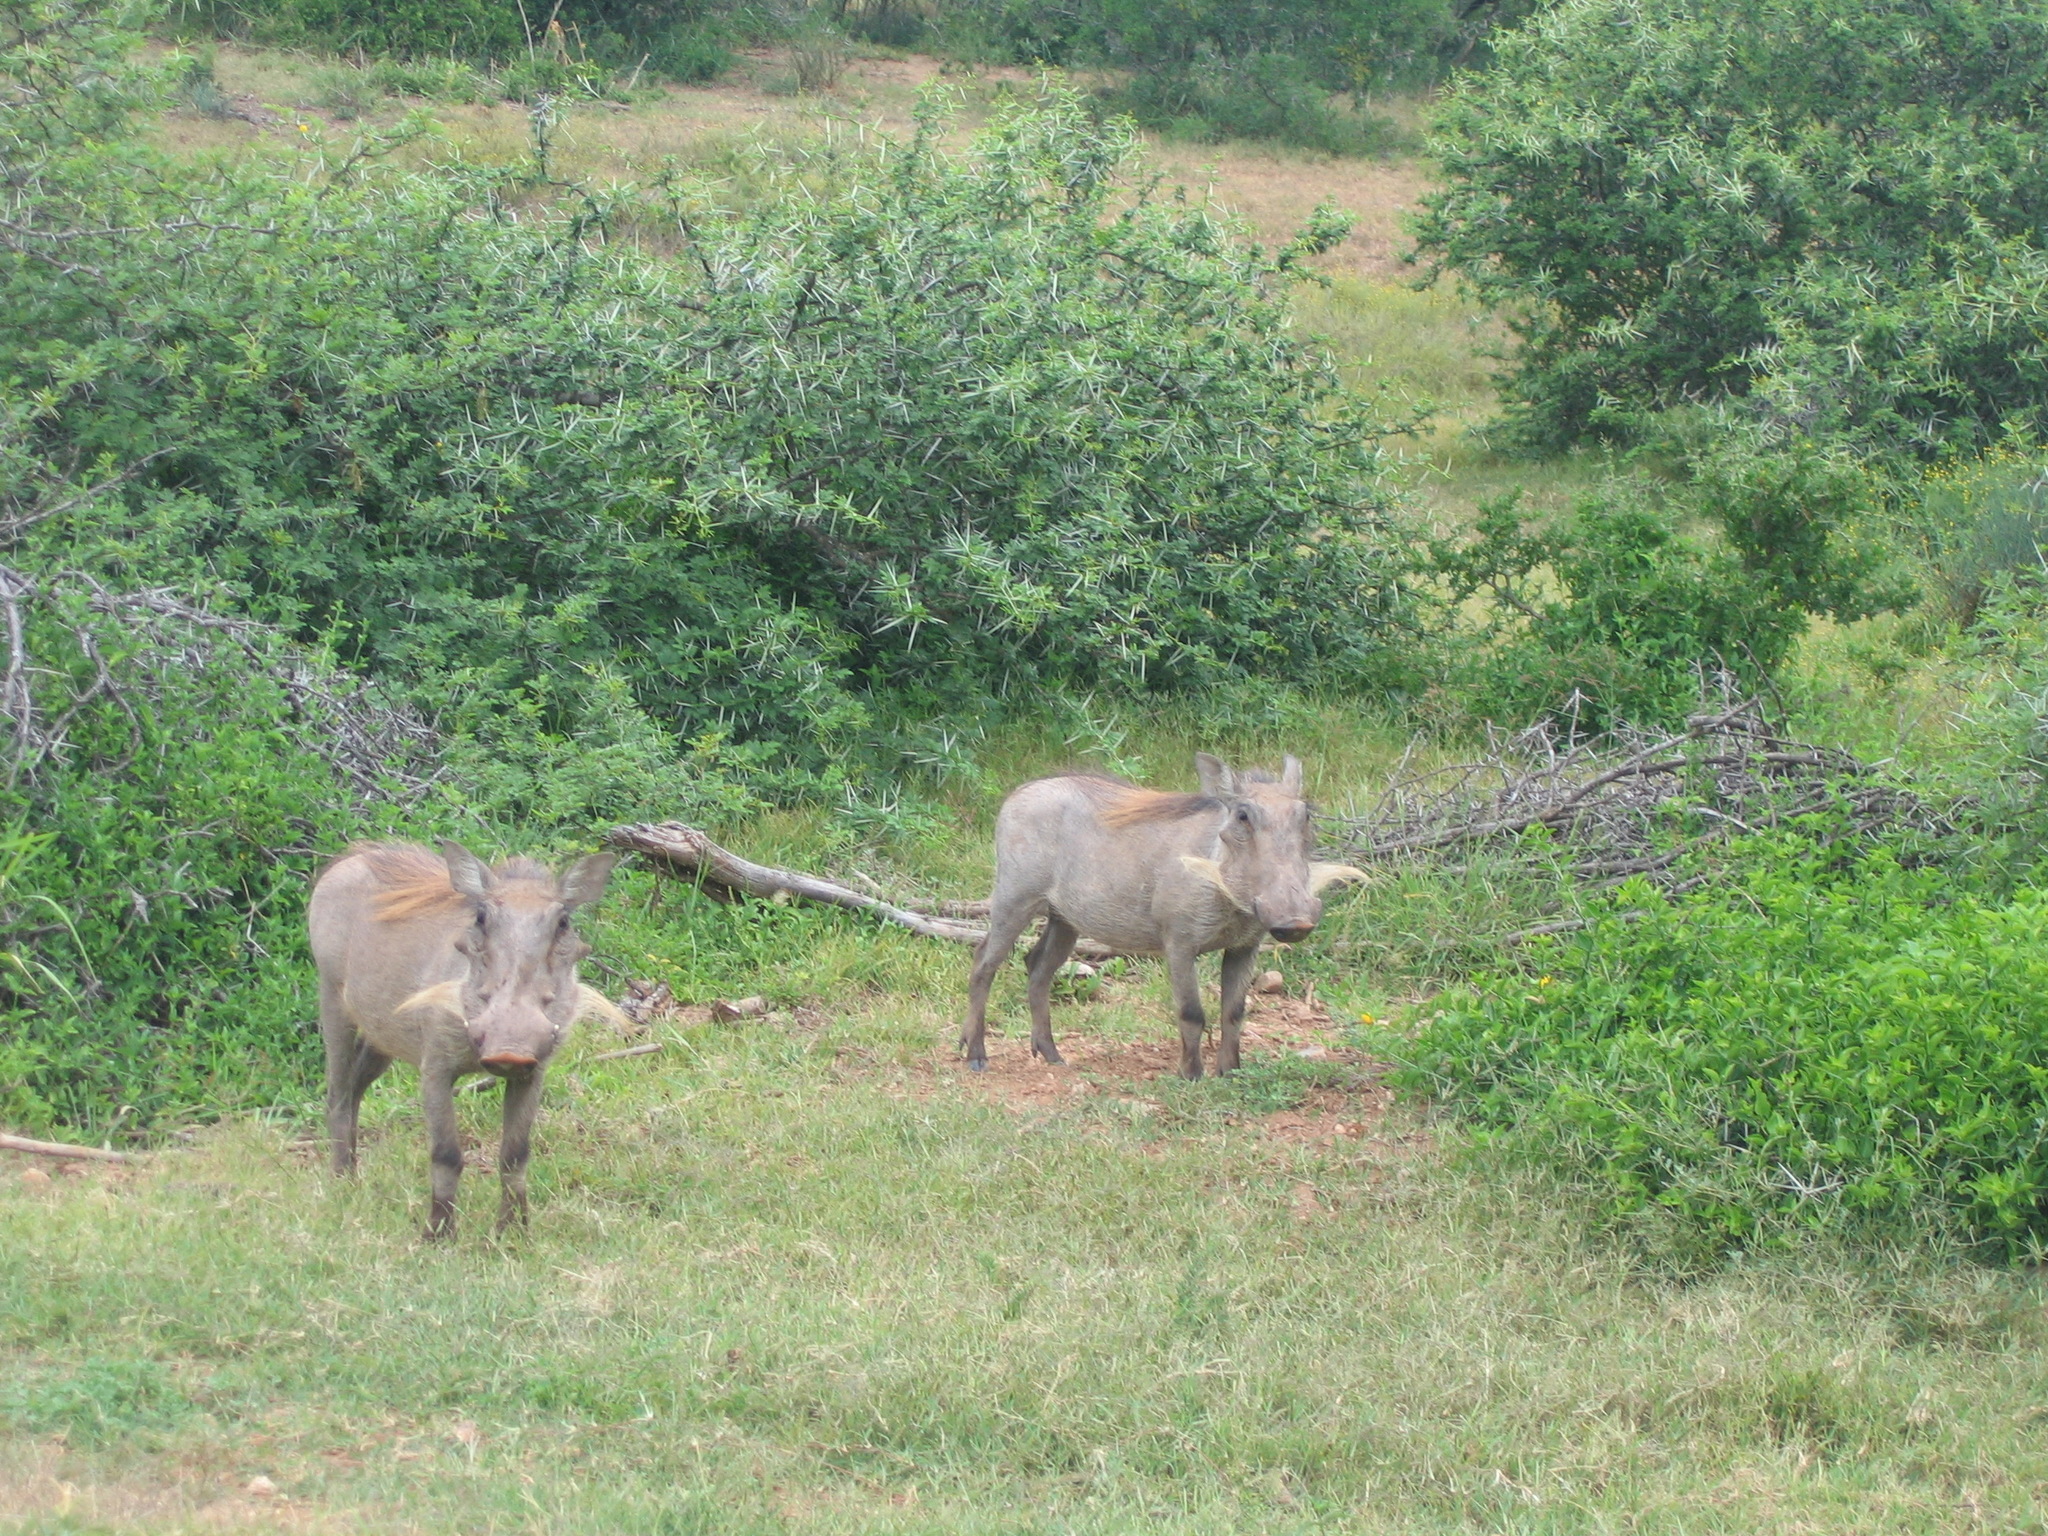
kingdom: Animalia
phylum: Chordata
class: Mammalia
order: Artiodactyla
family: Suidae
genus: Phacochoerus
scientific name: Phacochoerus africanus
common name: Common warthog
